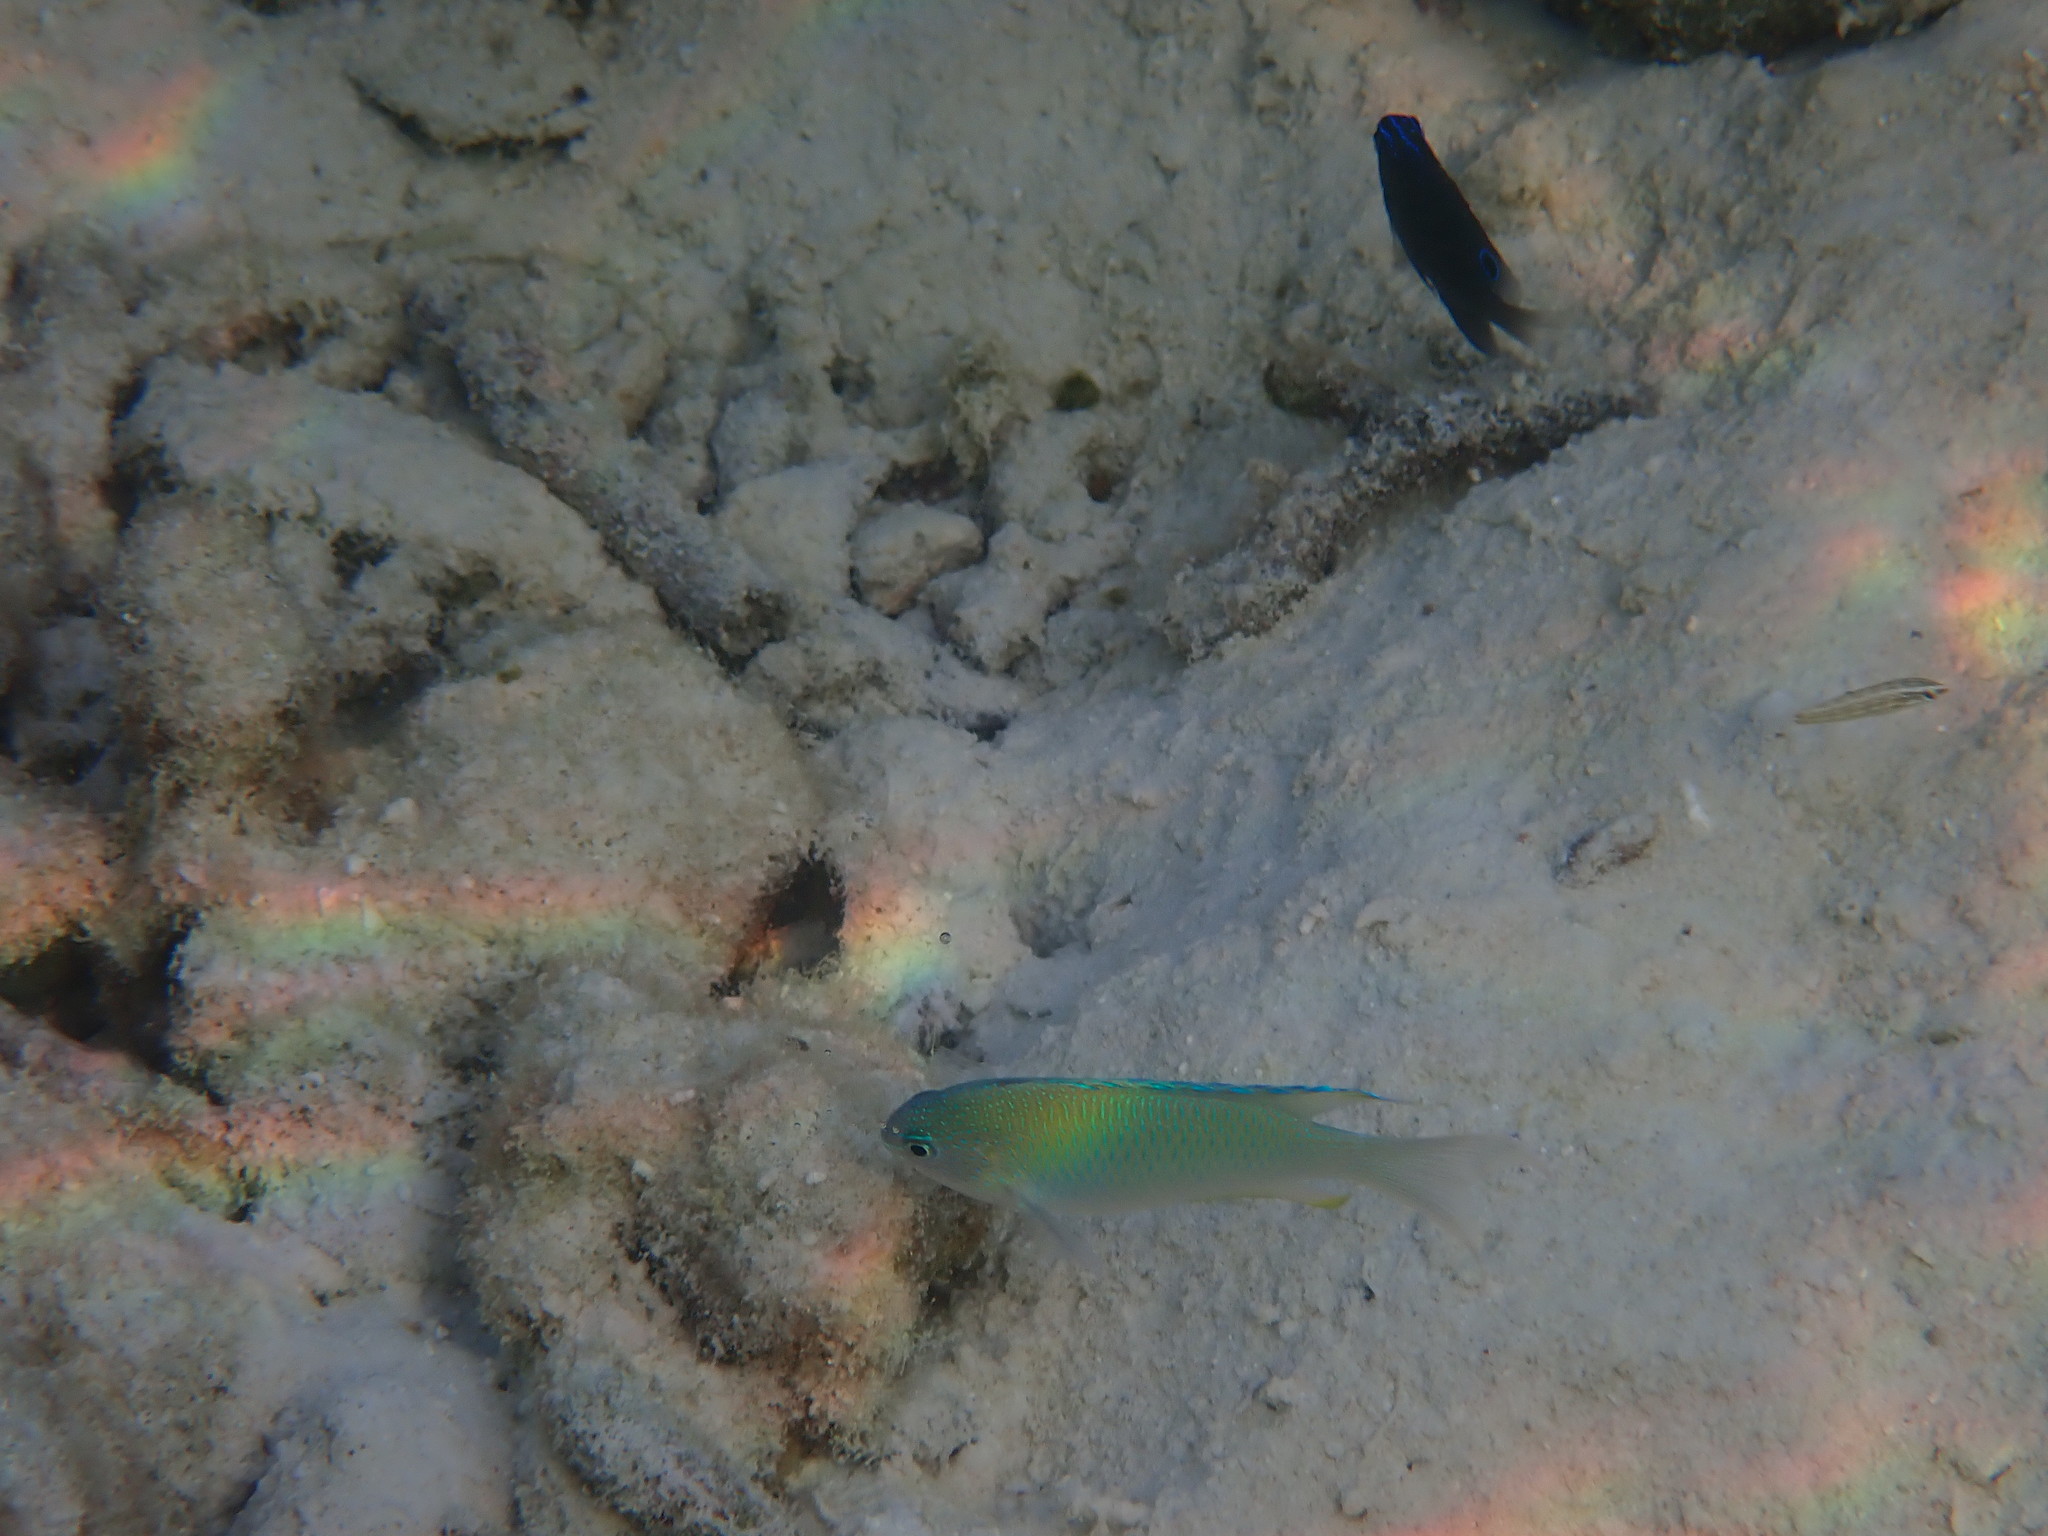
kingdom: Animalia
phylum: Chordata
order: Perciformes
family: Pomacentridae
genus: Pomacentrus
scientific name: Pomacentrus pavo
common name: Sapphire damsel
